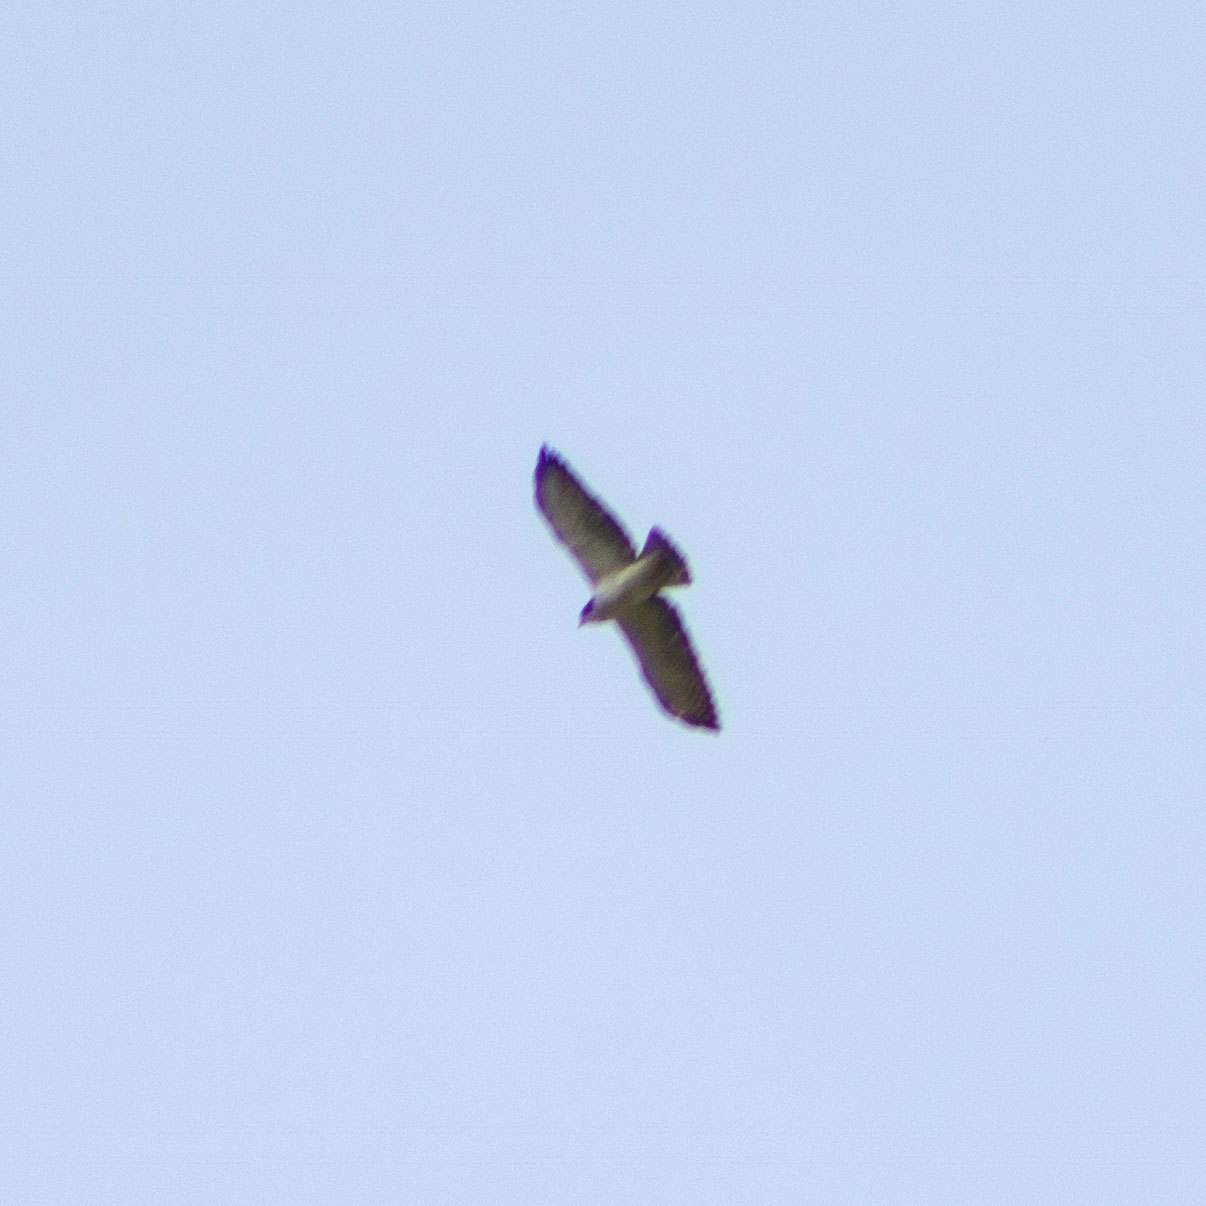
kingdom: Animalia
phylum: Chordata
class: Aves
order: Accipitriformes
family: Accipitridae
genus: Buteo
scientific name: Buteo brachyurus
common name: Short-tailed hawk
